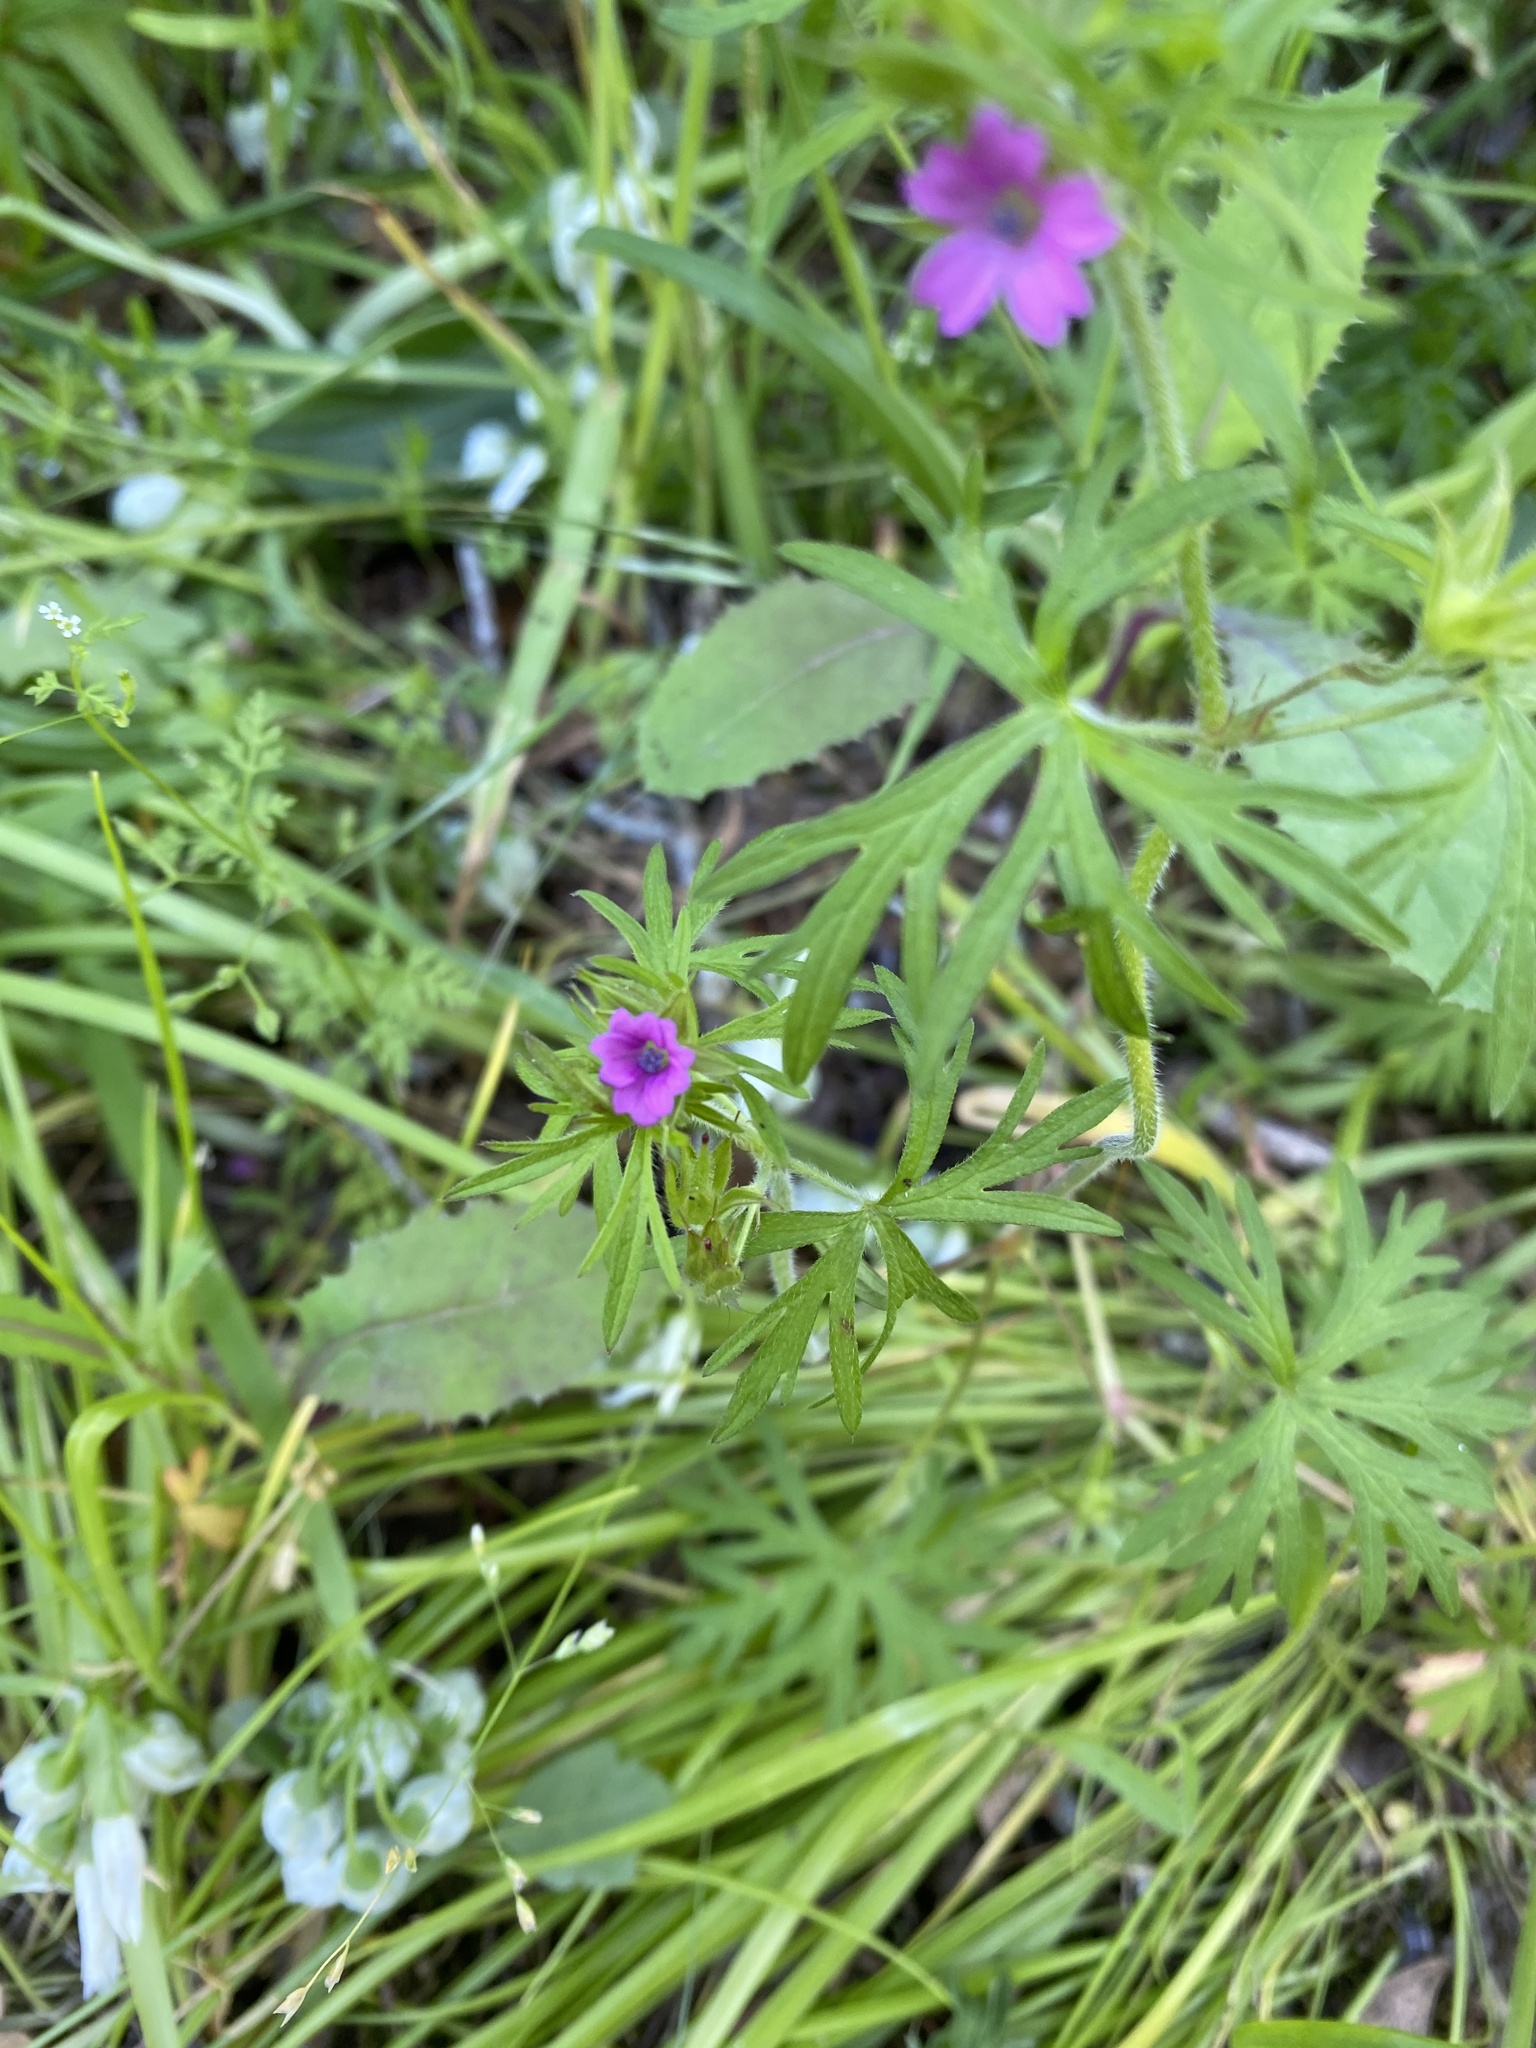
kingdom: Plantae
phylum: Tracheophyta
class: Magnoliopsida
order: Geraniales
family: Geraniaceae
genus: Geranium
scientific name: Geranium dissectum
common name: Cut-leaved crane's-bill
